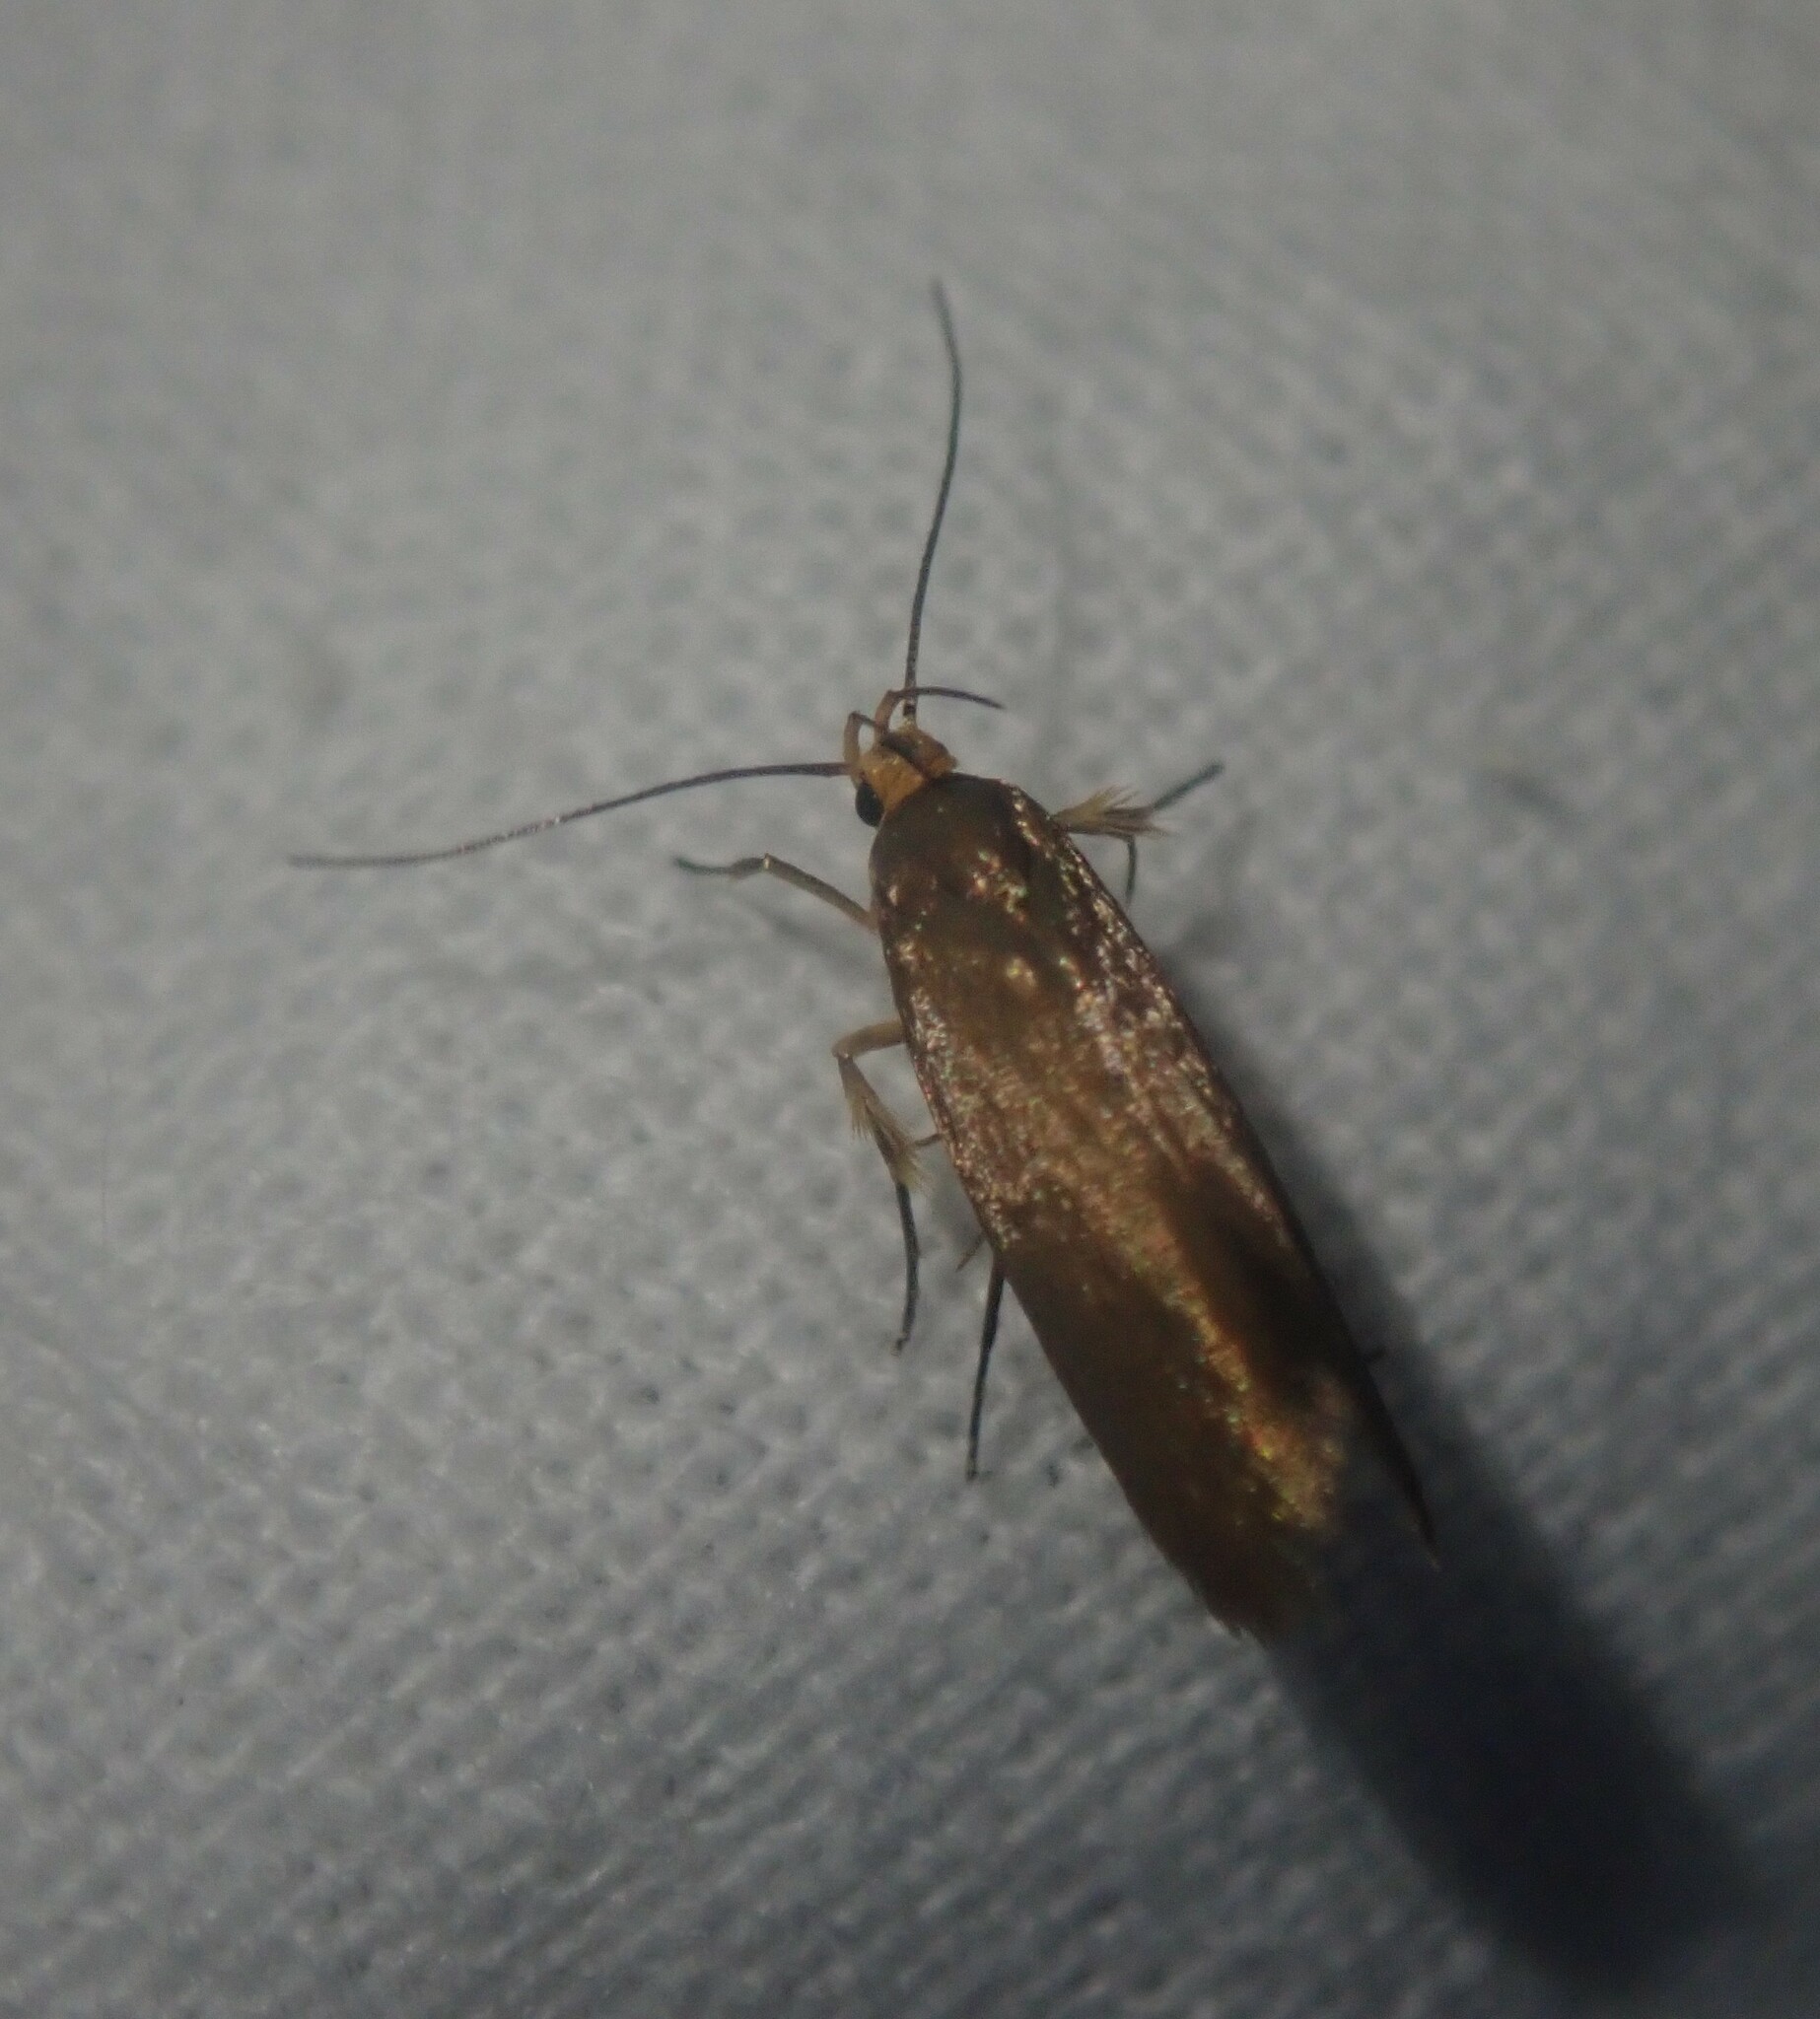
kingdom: Animalia
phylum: Arthropoda
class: Insecta
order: Lepidoptera
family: Oecophoridae
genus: Borkhausenia
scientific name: Borkhausenia Crassa unitella
